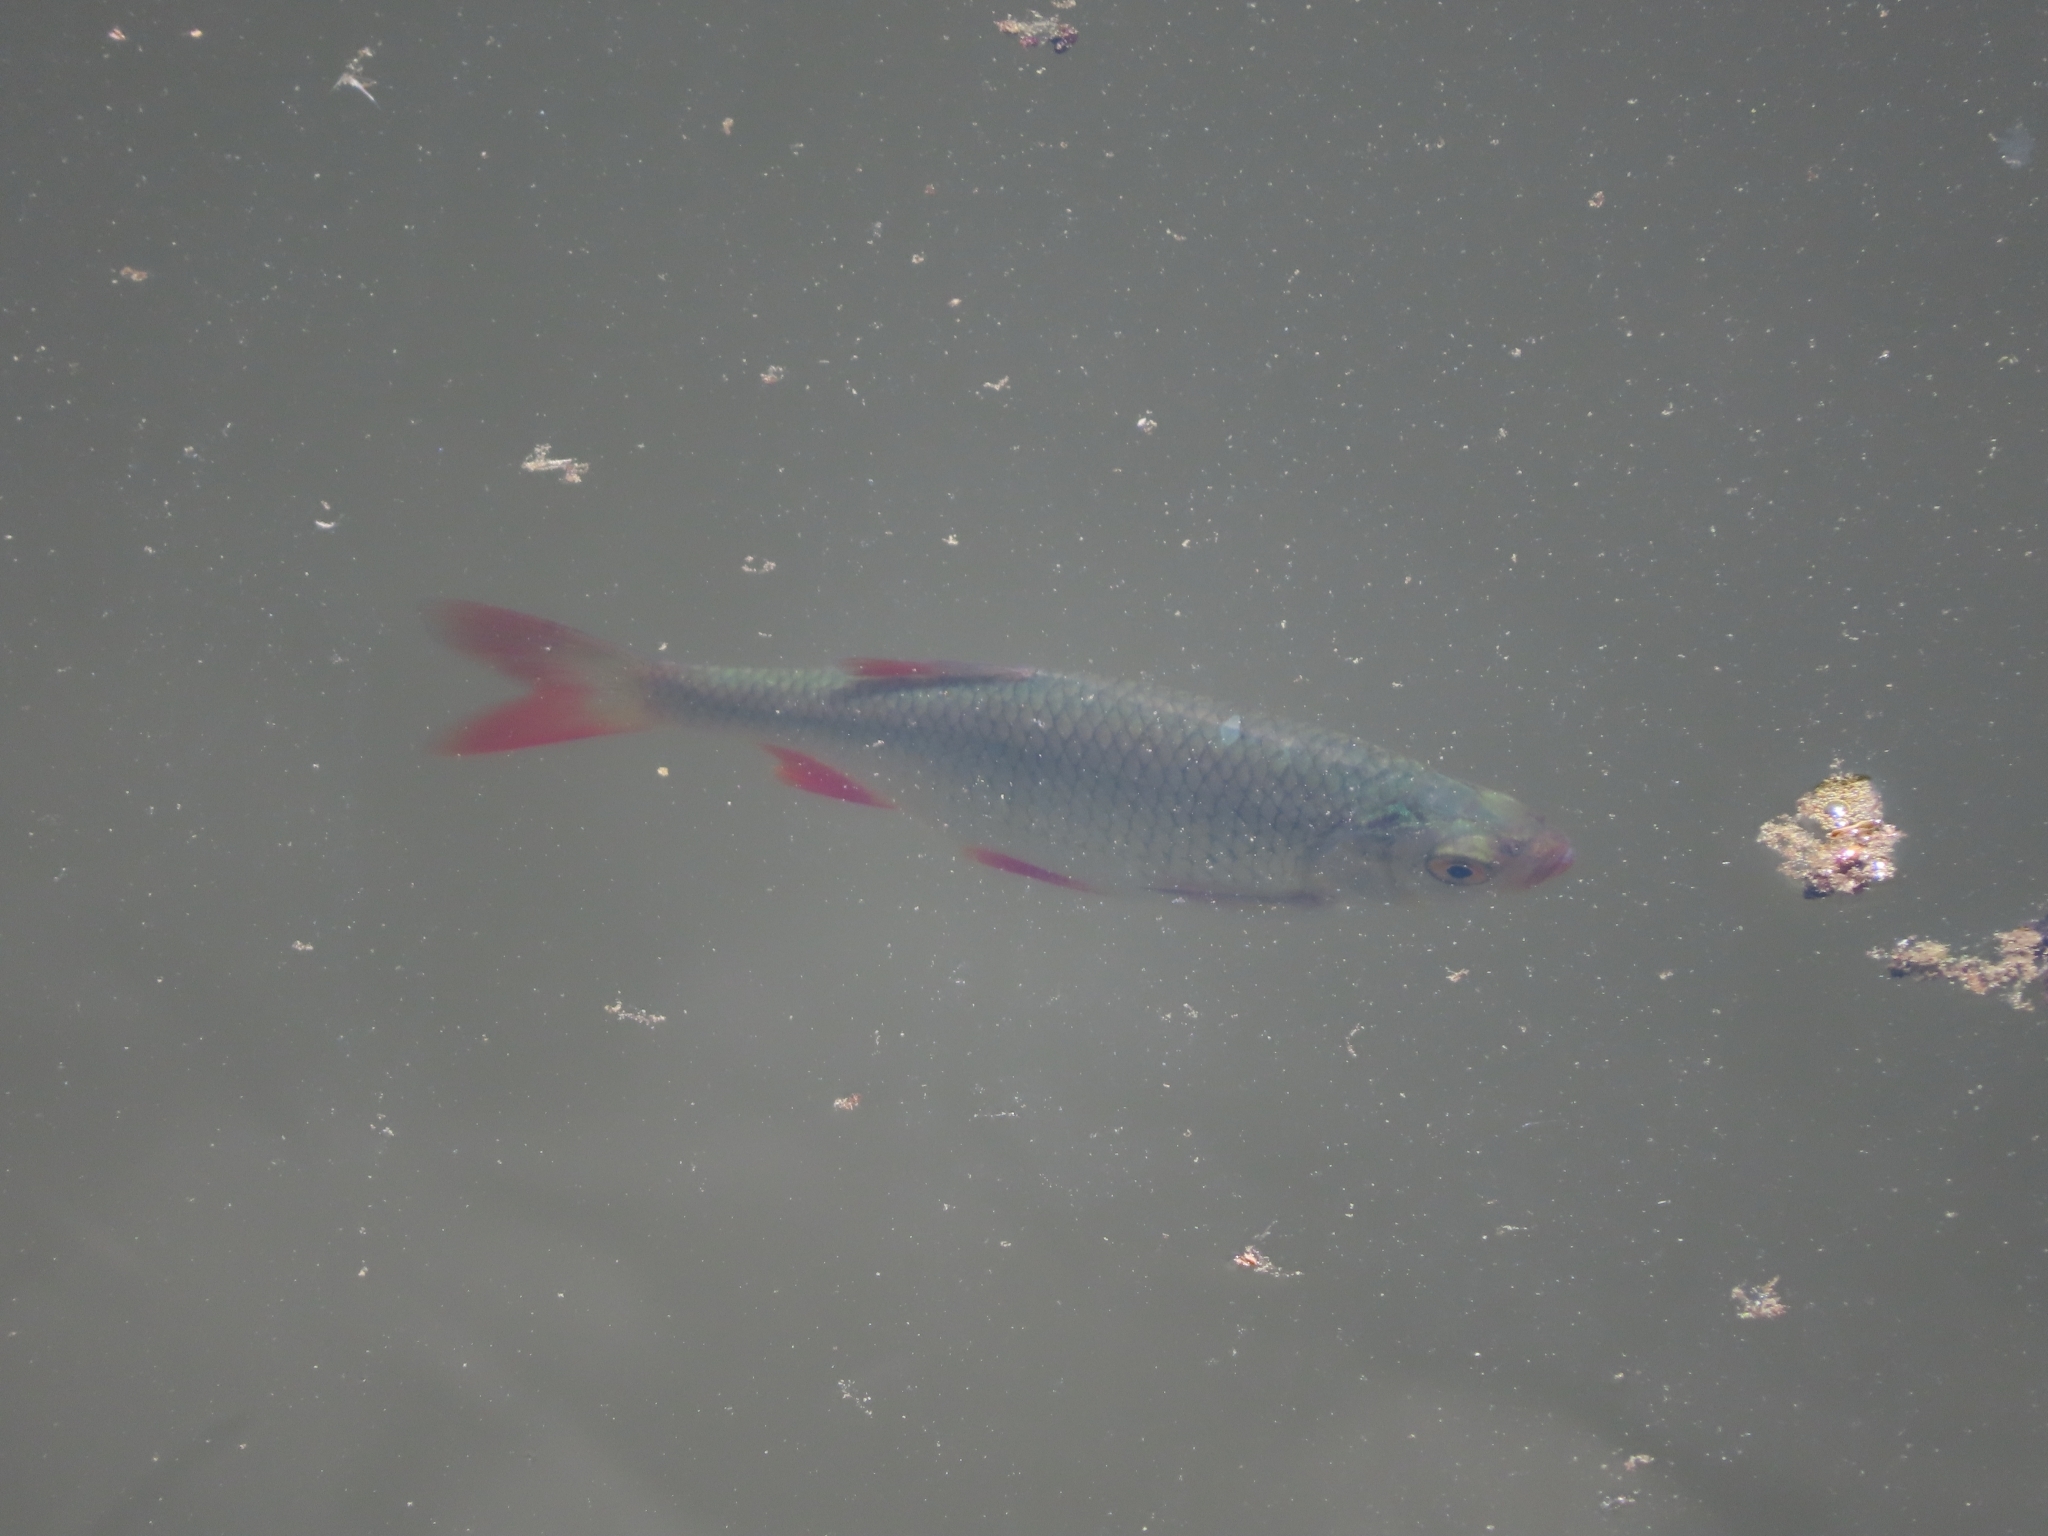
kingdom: Animalia
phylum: Chordata
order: Cypriniformes
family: Cyprinidae
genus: Scardinius
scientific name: Scardinius erythrophthalmus
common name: Rudd
